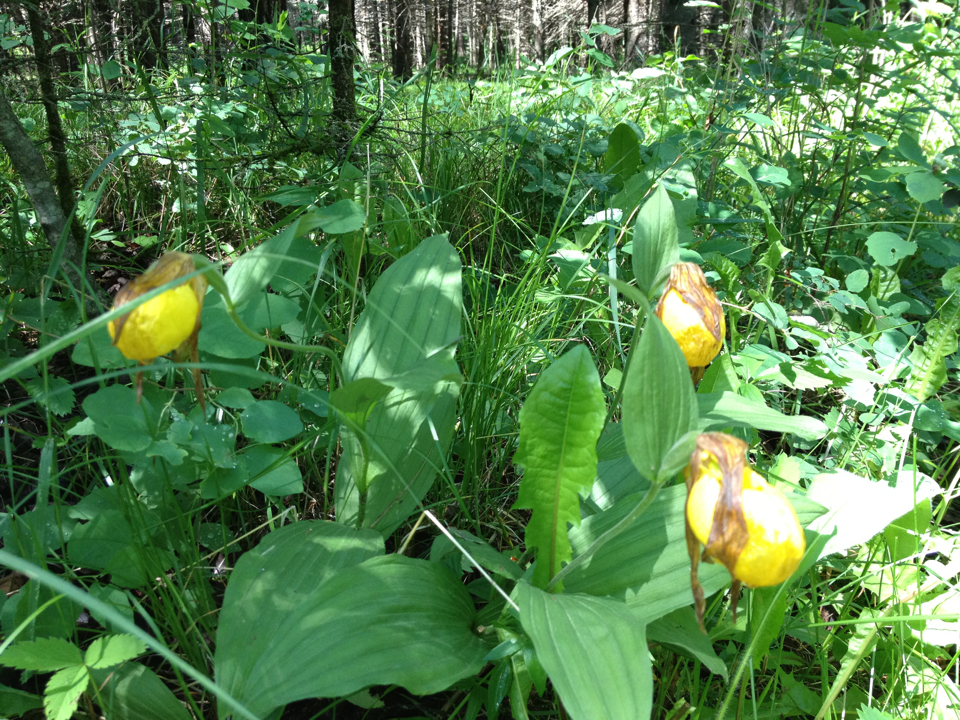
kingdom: Plantae
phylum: Tracheophyta
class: Liliopsida
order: Asparagales
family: Orchidaceae
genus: Cypripedium
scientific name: Cypripedium parviflorum
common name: American yellow lady's-slipper
